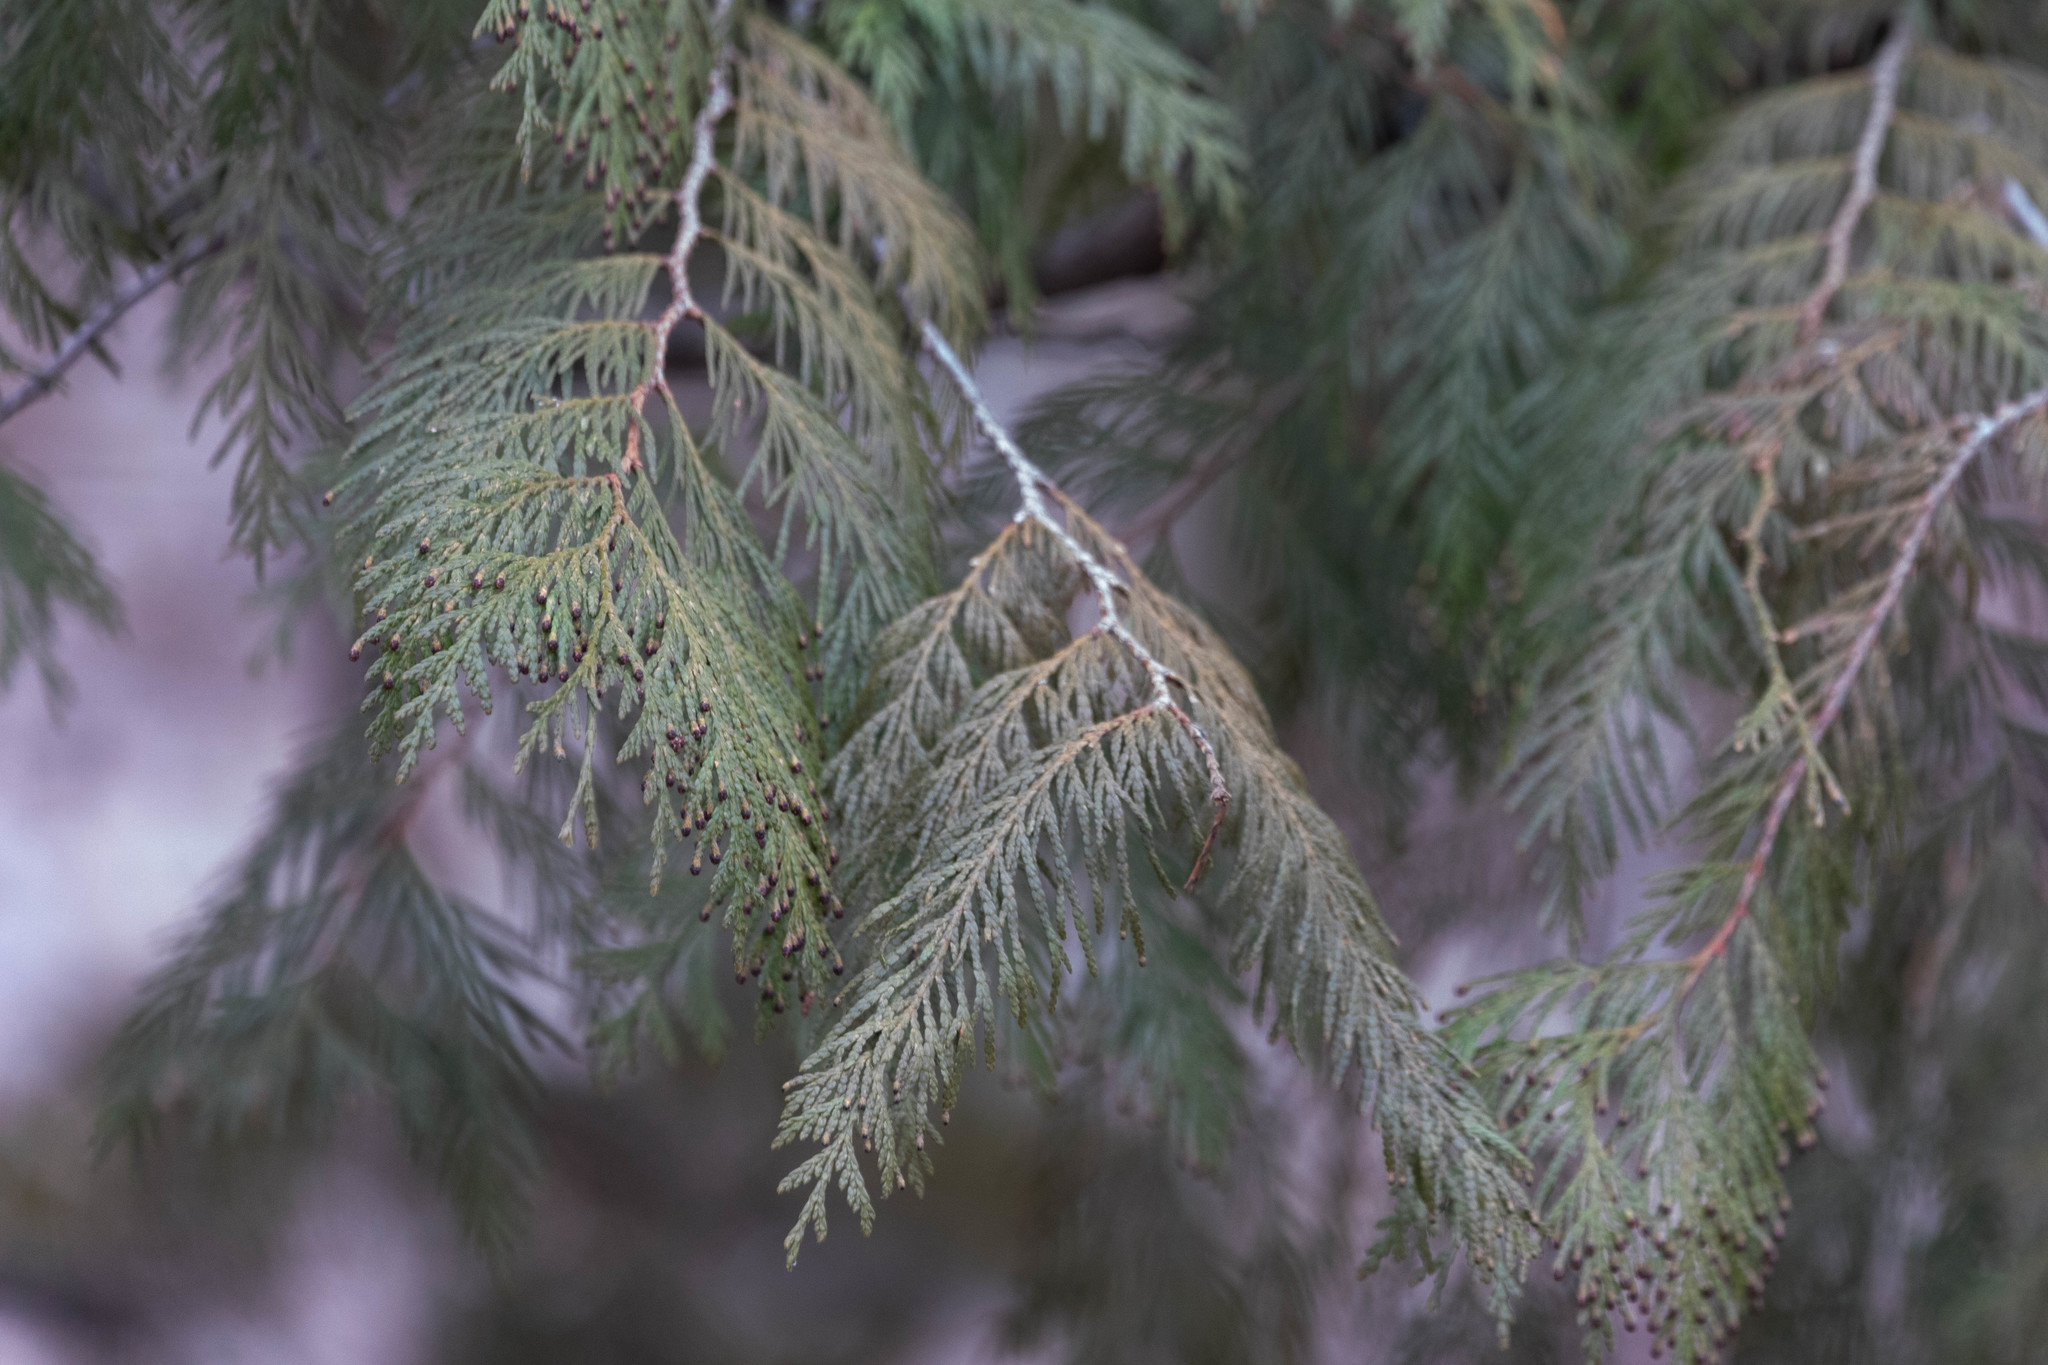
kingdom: Plantae
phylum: Tracheophyta
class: Pinopsida
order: Pinales
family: Cupressaceae
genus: Thuja
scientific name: Thuja plicata
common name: Western red-cedar
